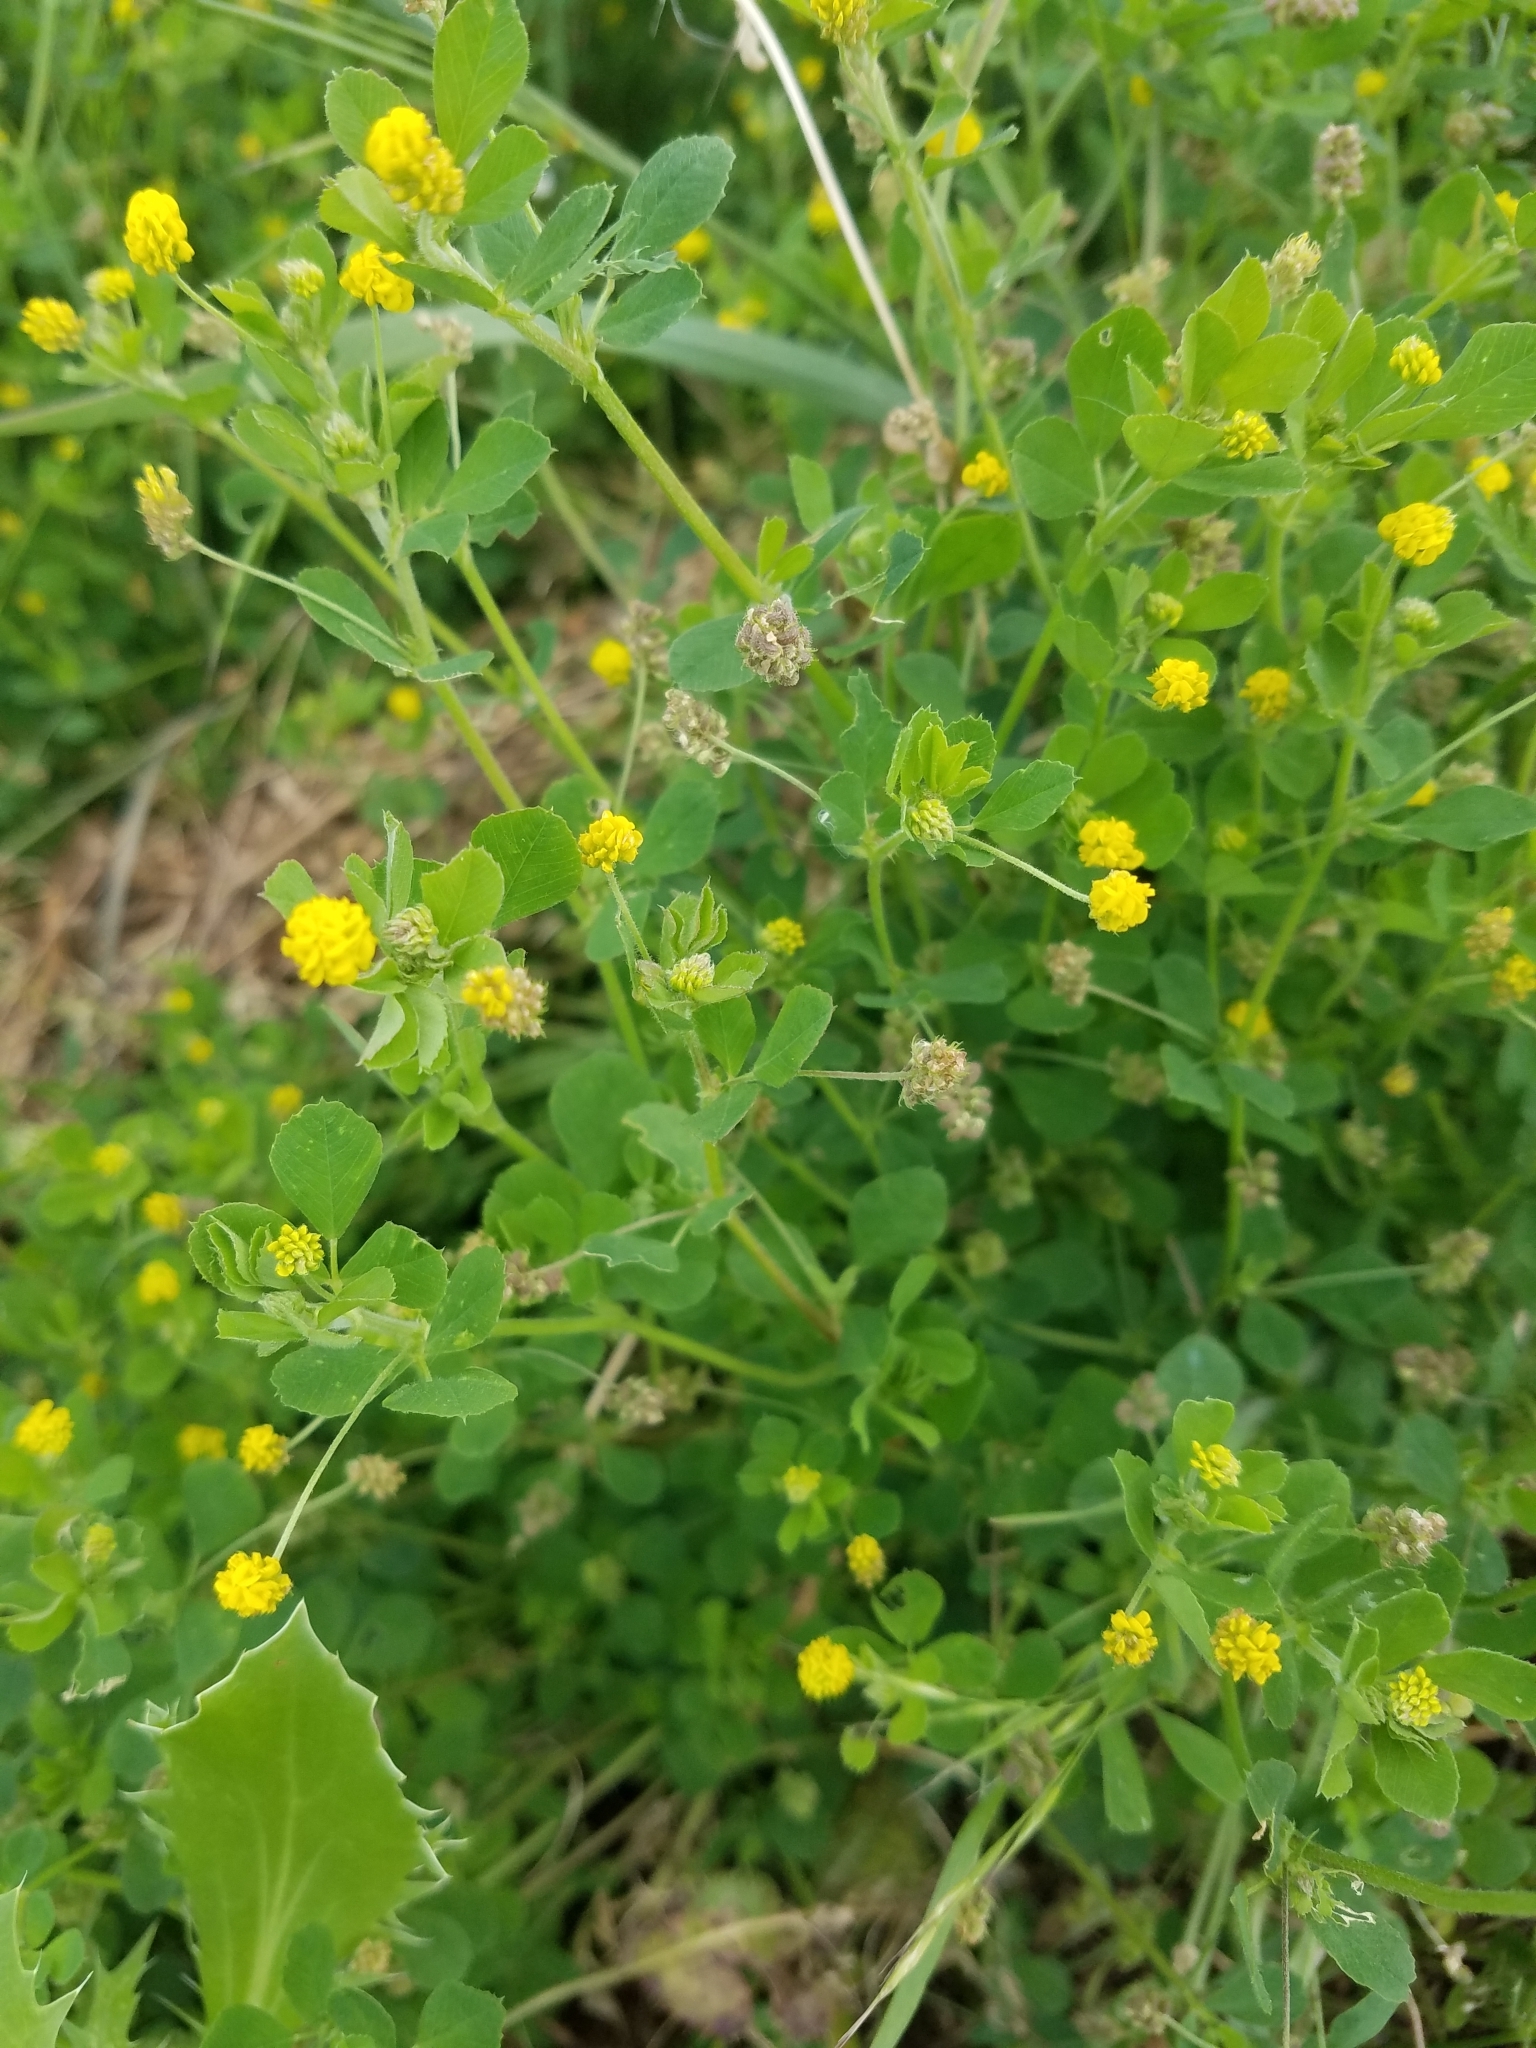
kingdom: Plantae
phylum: Tracheophyta
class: Magnoliopsida
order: Fabales
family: Fabaceae
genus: Medicago
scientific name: Medicago lupulina
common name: Black medick
